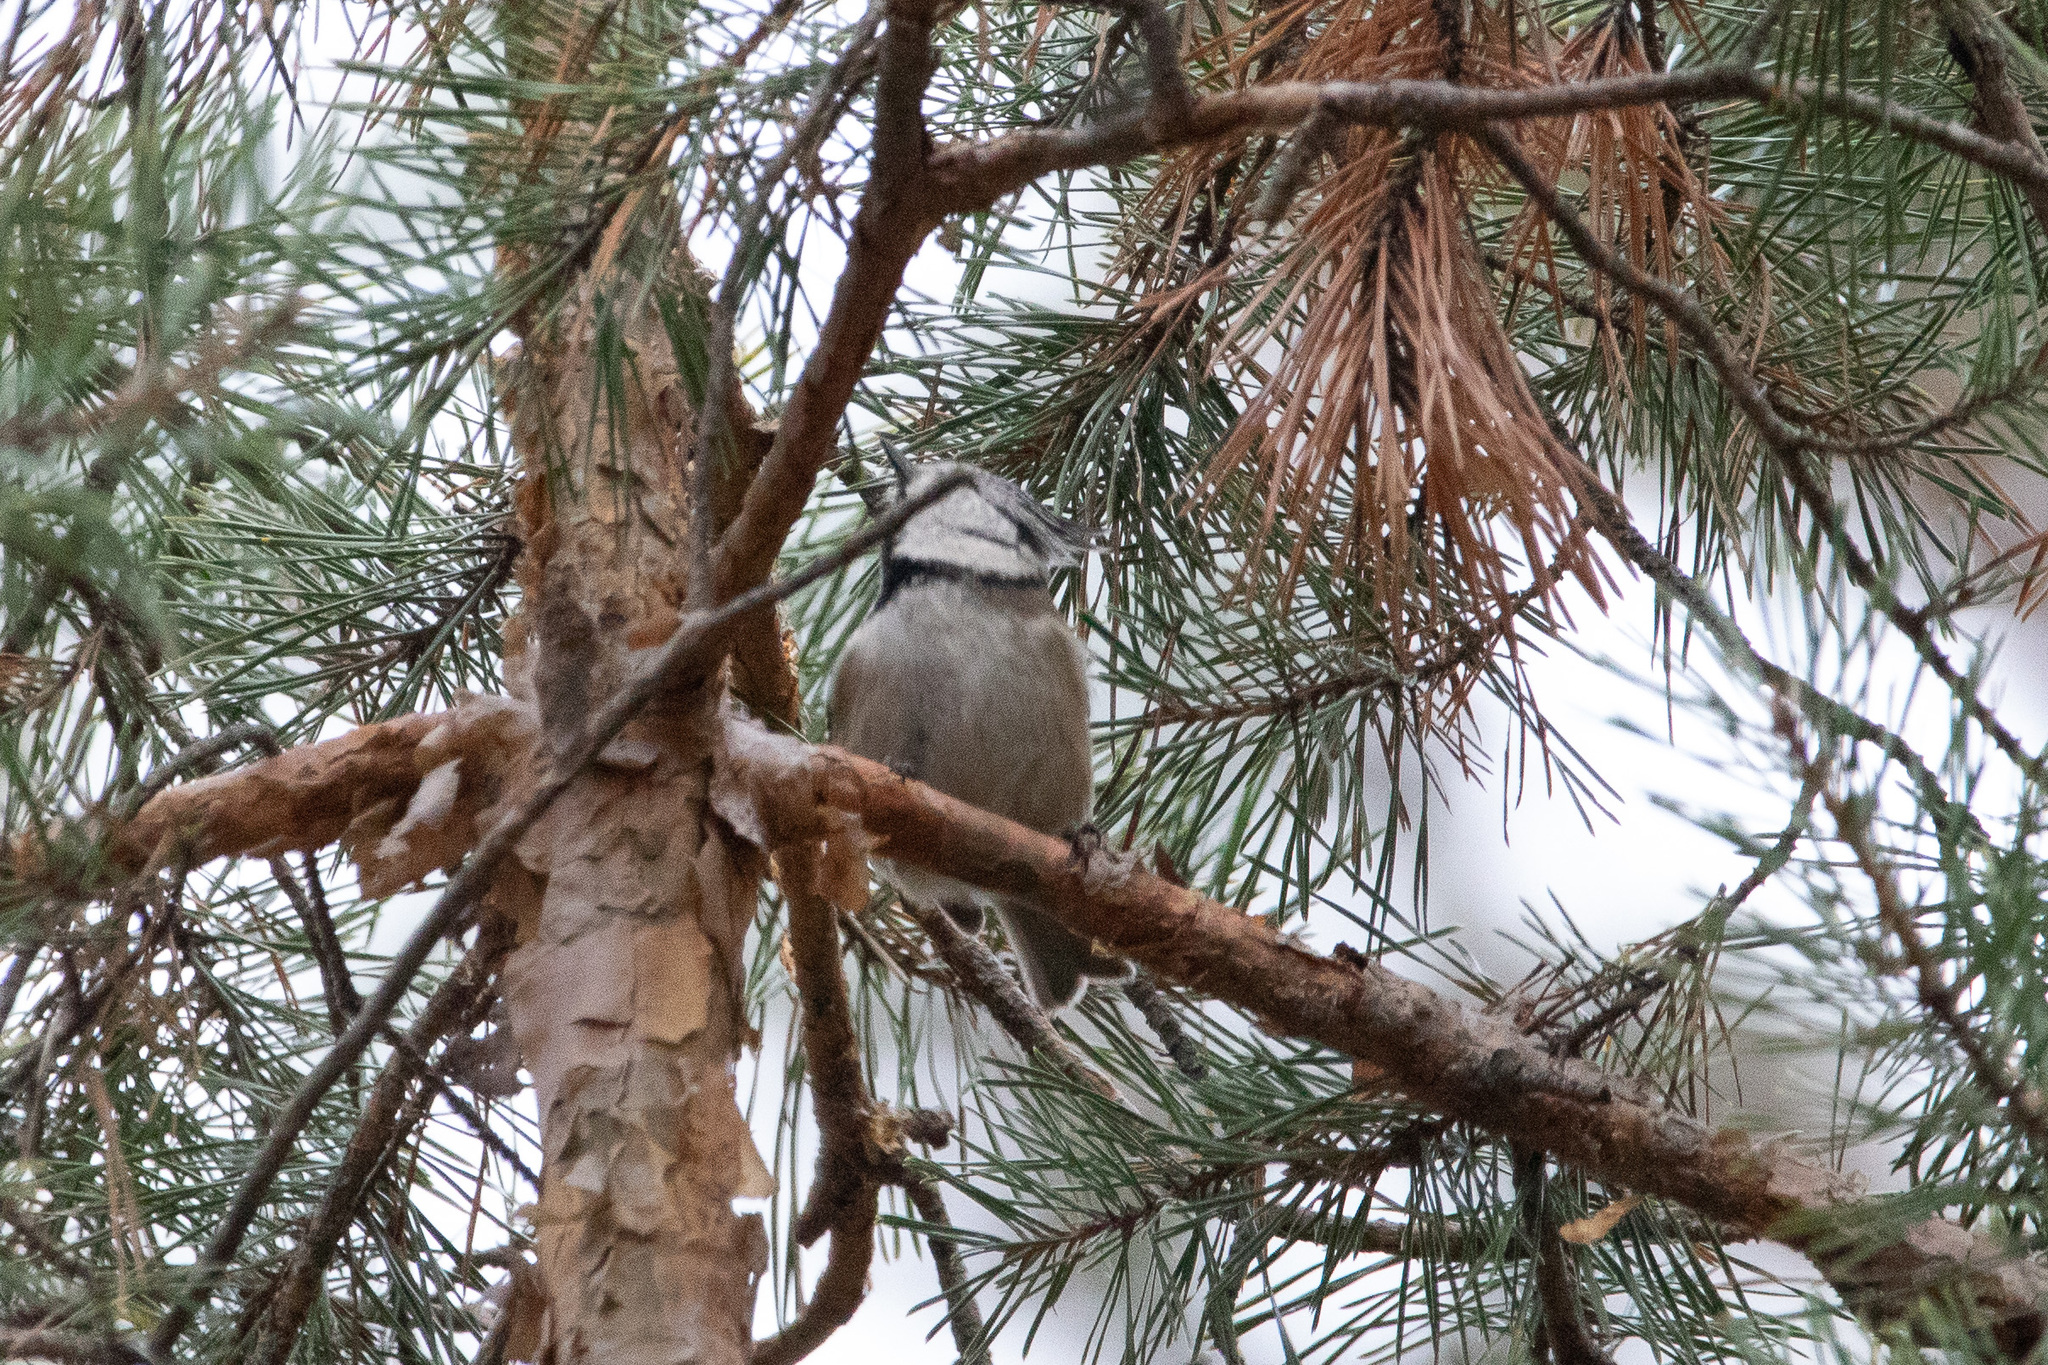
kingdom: Animalia
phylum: Chordata
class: Aves
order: Passeriformes
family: Paridae
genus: Lophophanes
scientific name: Lophophanes cristatus
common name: European crested tit
